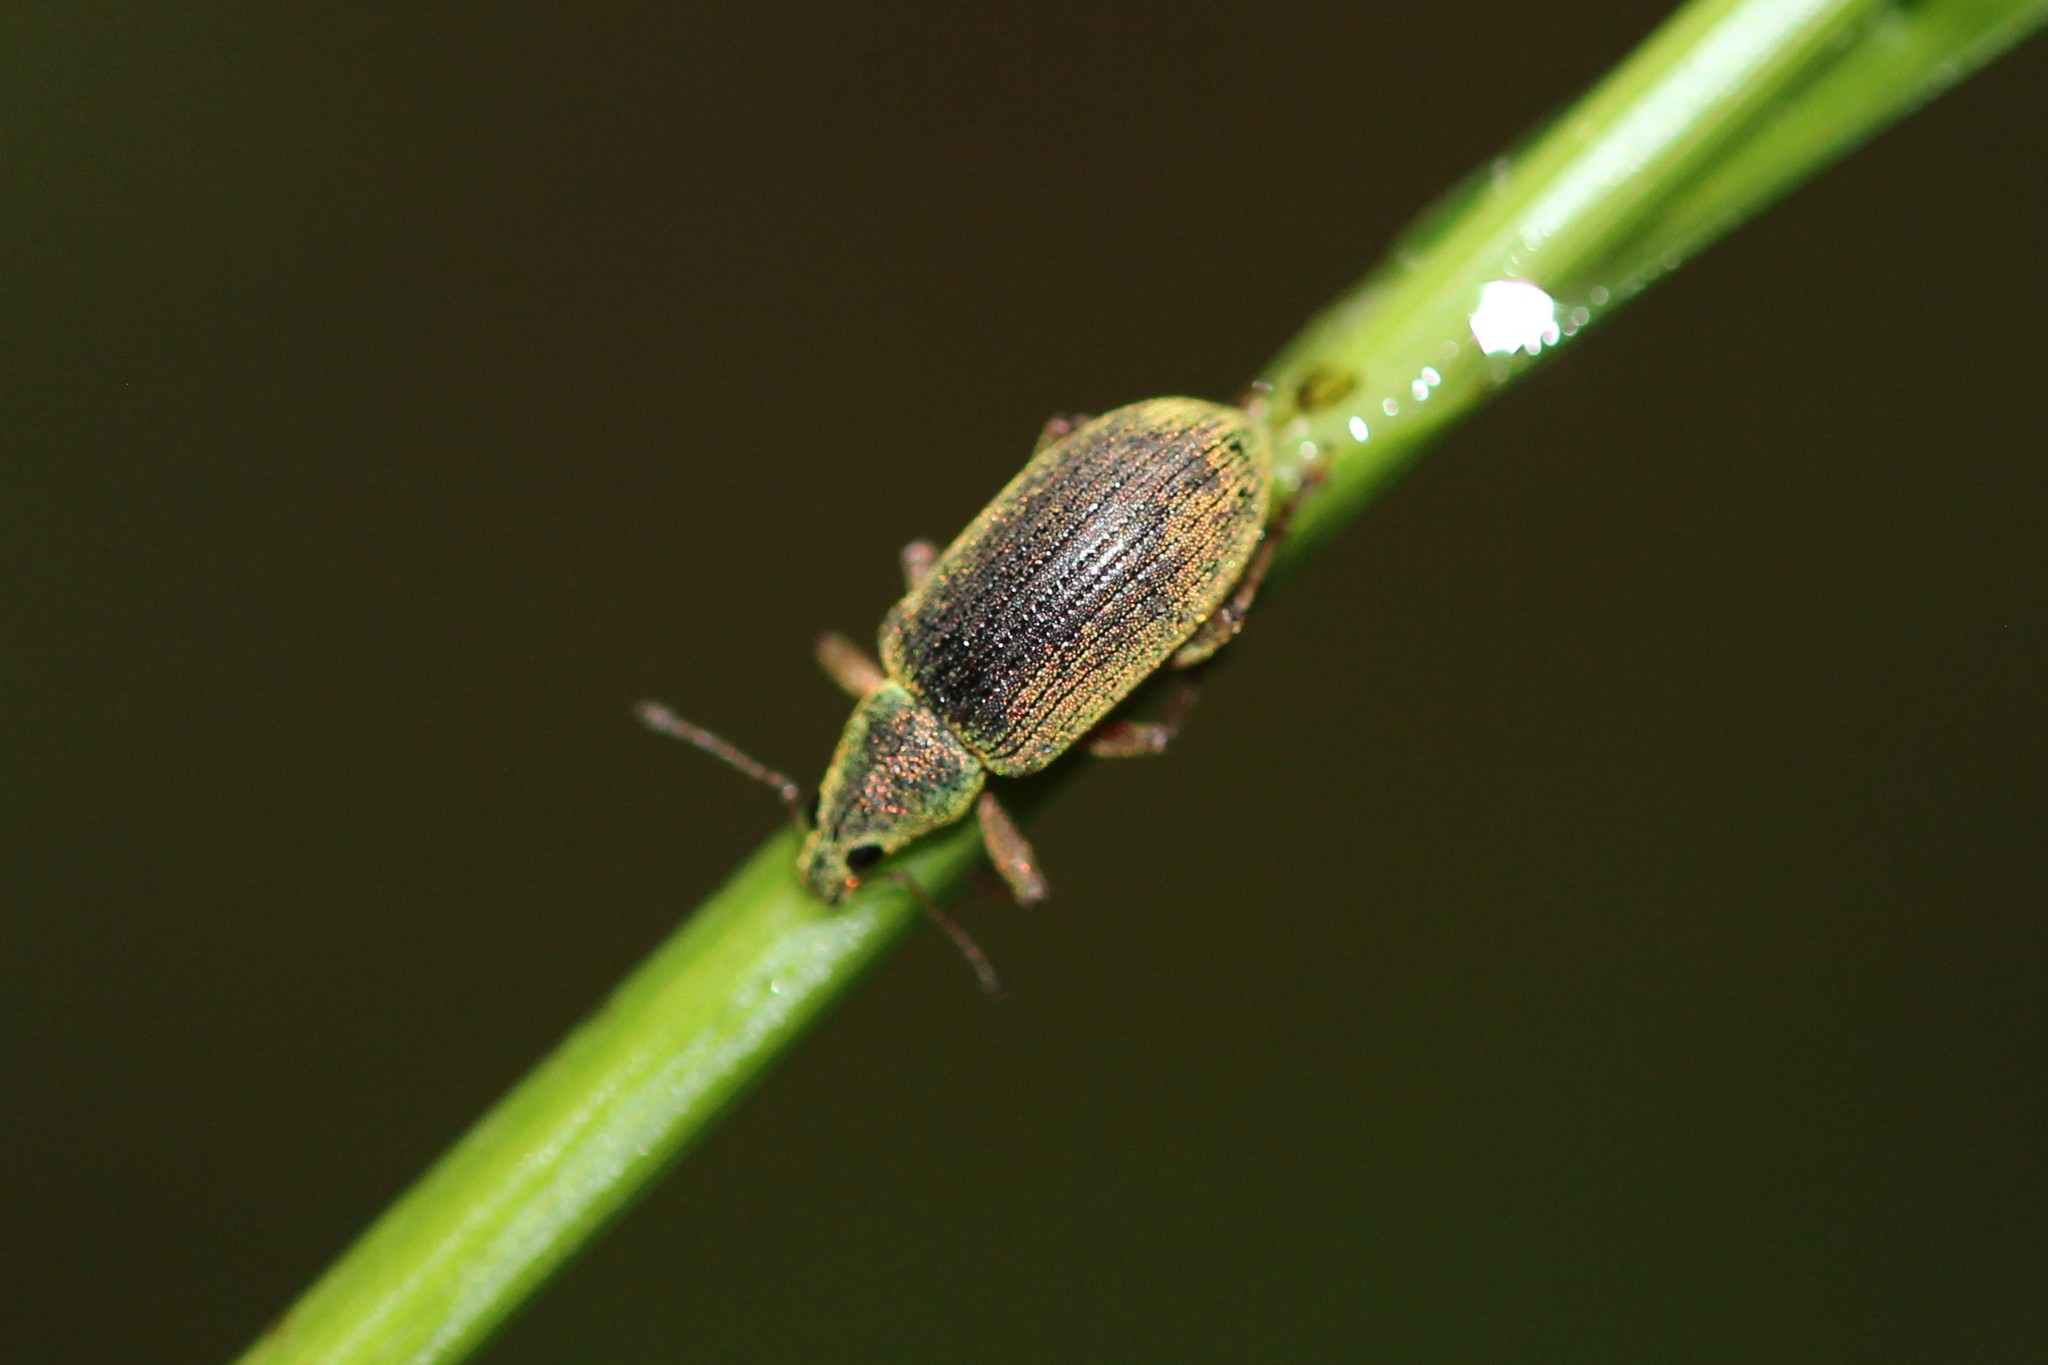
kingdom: Animalia
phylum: Arthropoda
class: Insecta
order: Coleoptera
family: Curculionidae
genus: Polydrusus
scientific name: Polydrusus formosus
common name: Weevil
